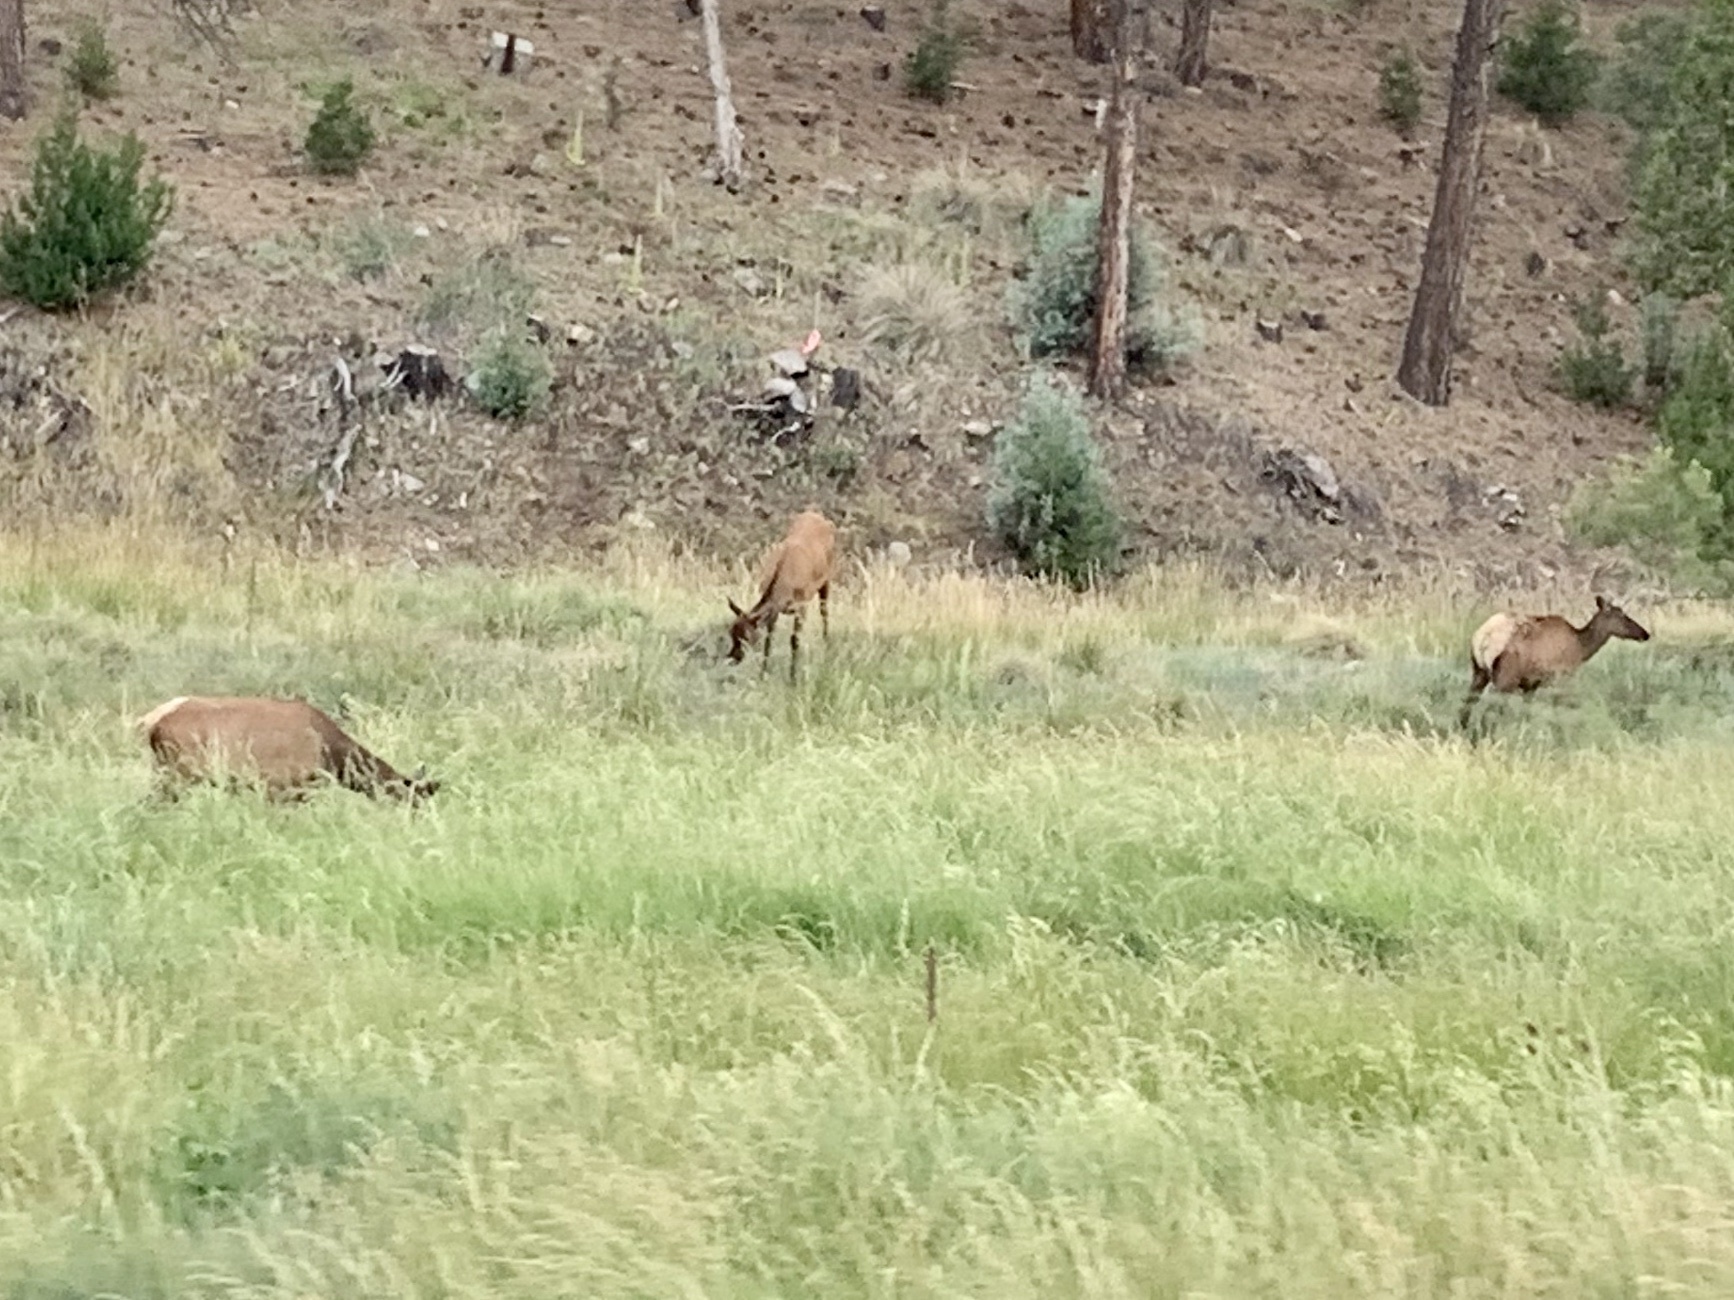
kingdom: Animalia
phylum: Chordata
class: Mammalia
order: Artiodactyla
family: Cervidae
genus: Cervus
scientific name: Cervus elaphus
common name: Red deer
